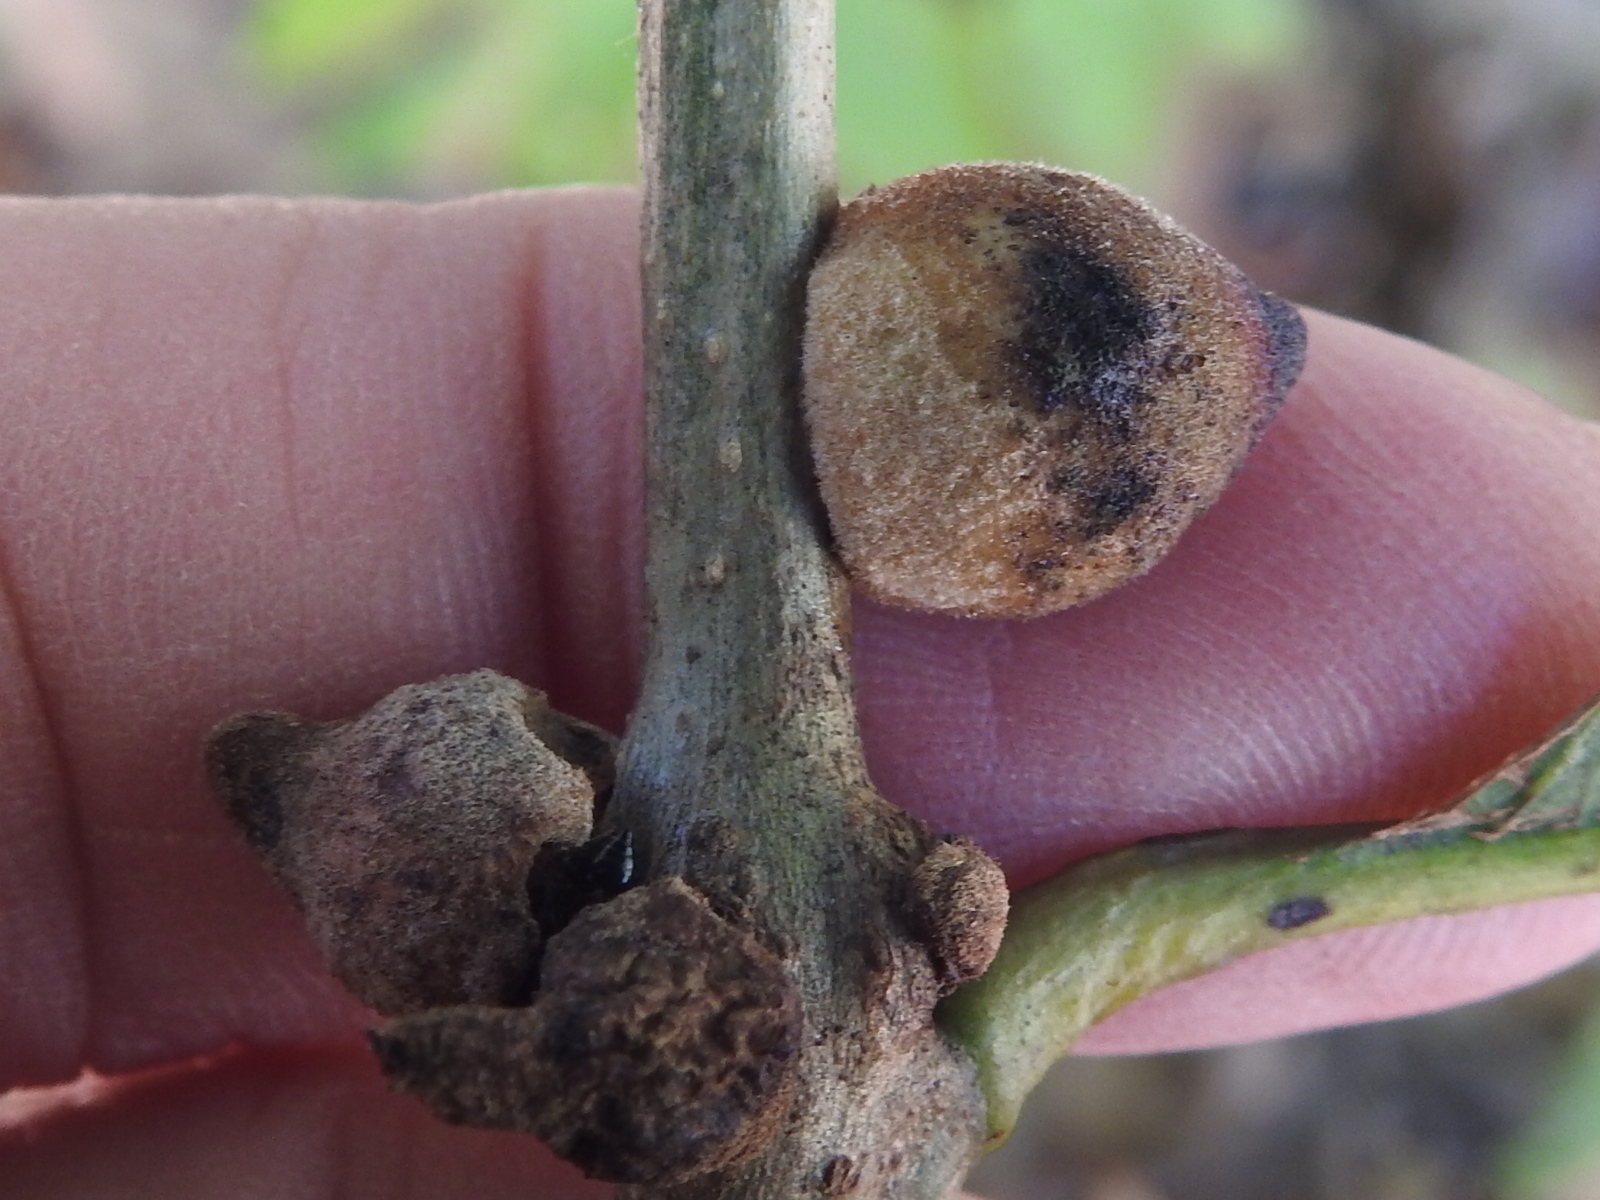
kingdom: Animalia
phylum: Arthropoda
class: Insecta
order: Hymenoptera
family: Cynipidae
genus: Disholcaspis
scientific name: Disholcaspis
